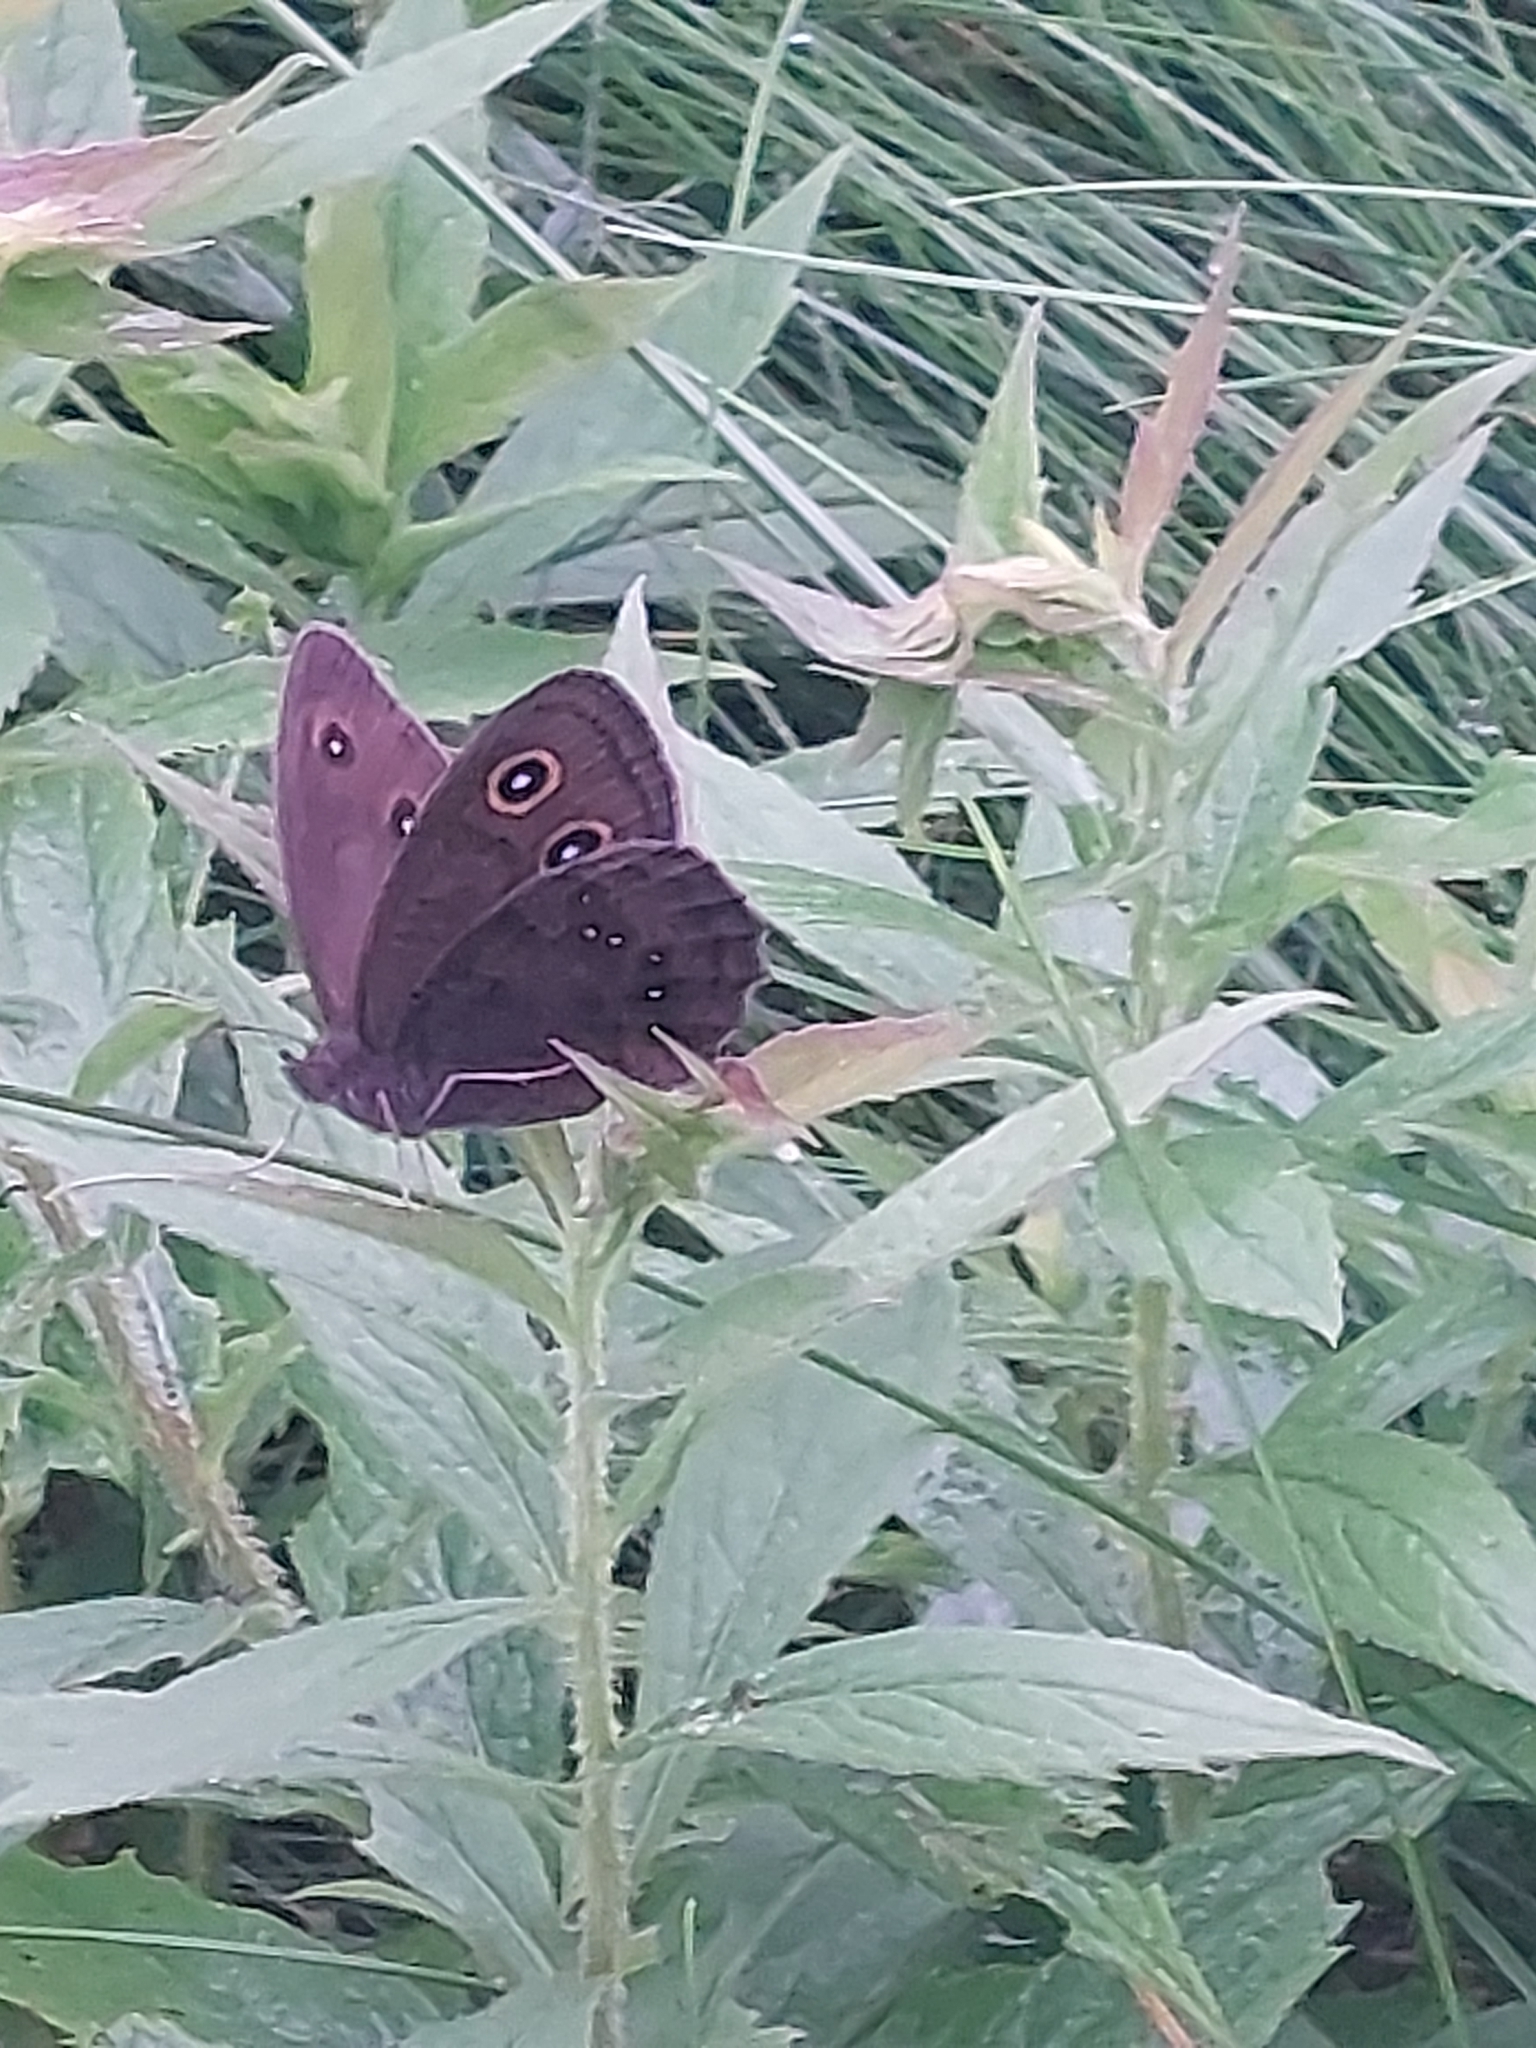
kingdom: Animalia
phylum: Arthropoda
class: Insecta
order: Lepidoptera
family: Nymphalidae
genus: Cercyonis
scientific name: Cercyonis pegala
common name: Common wood-nymph
